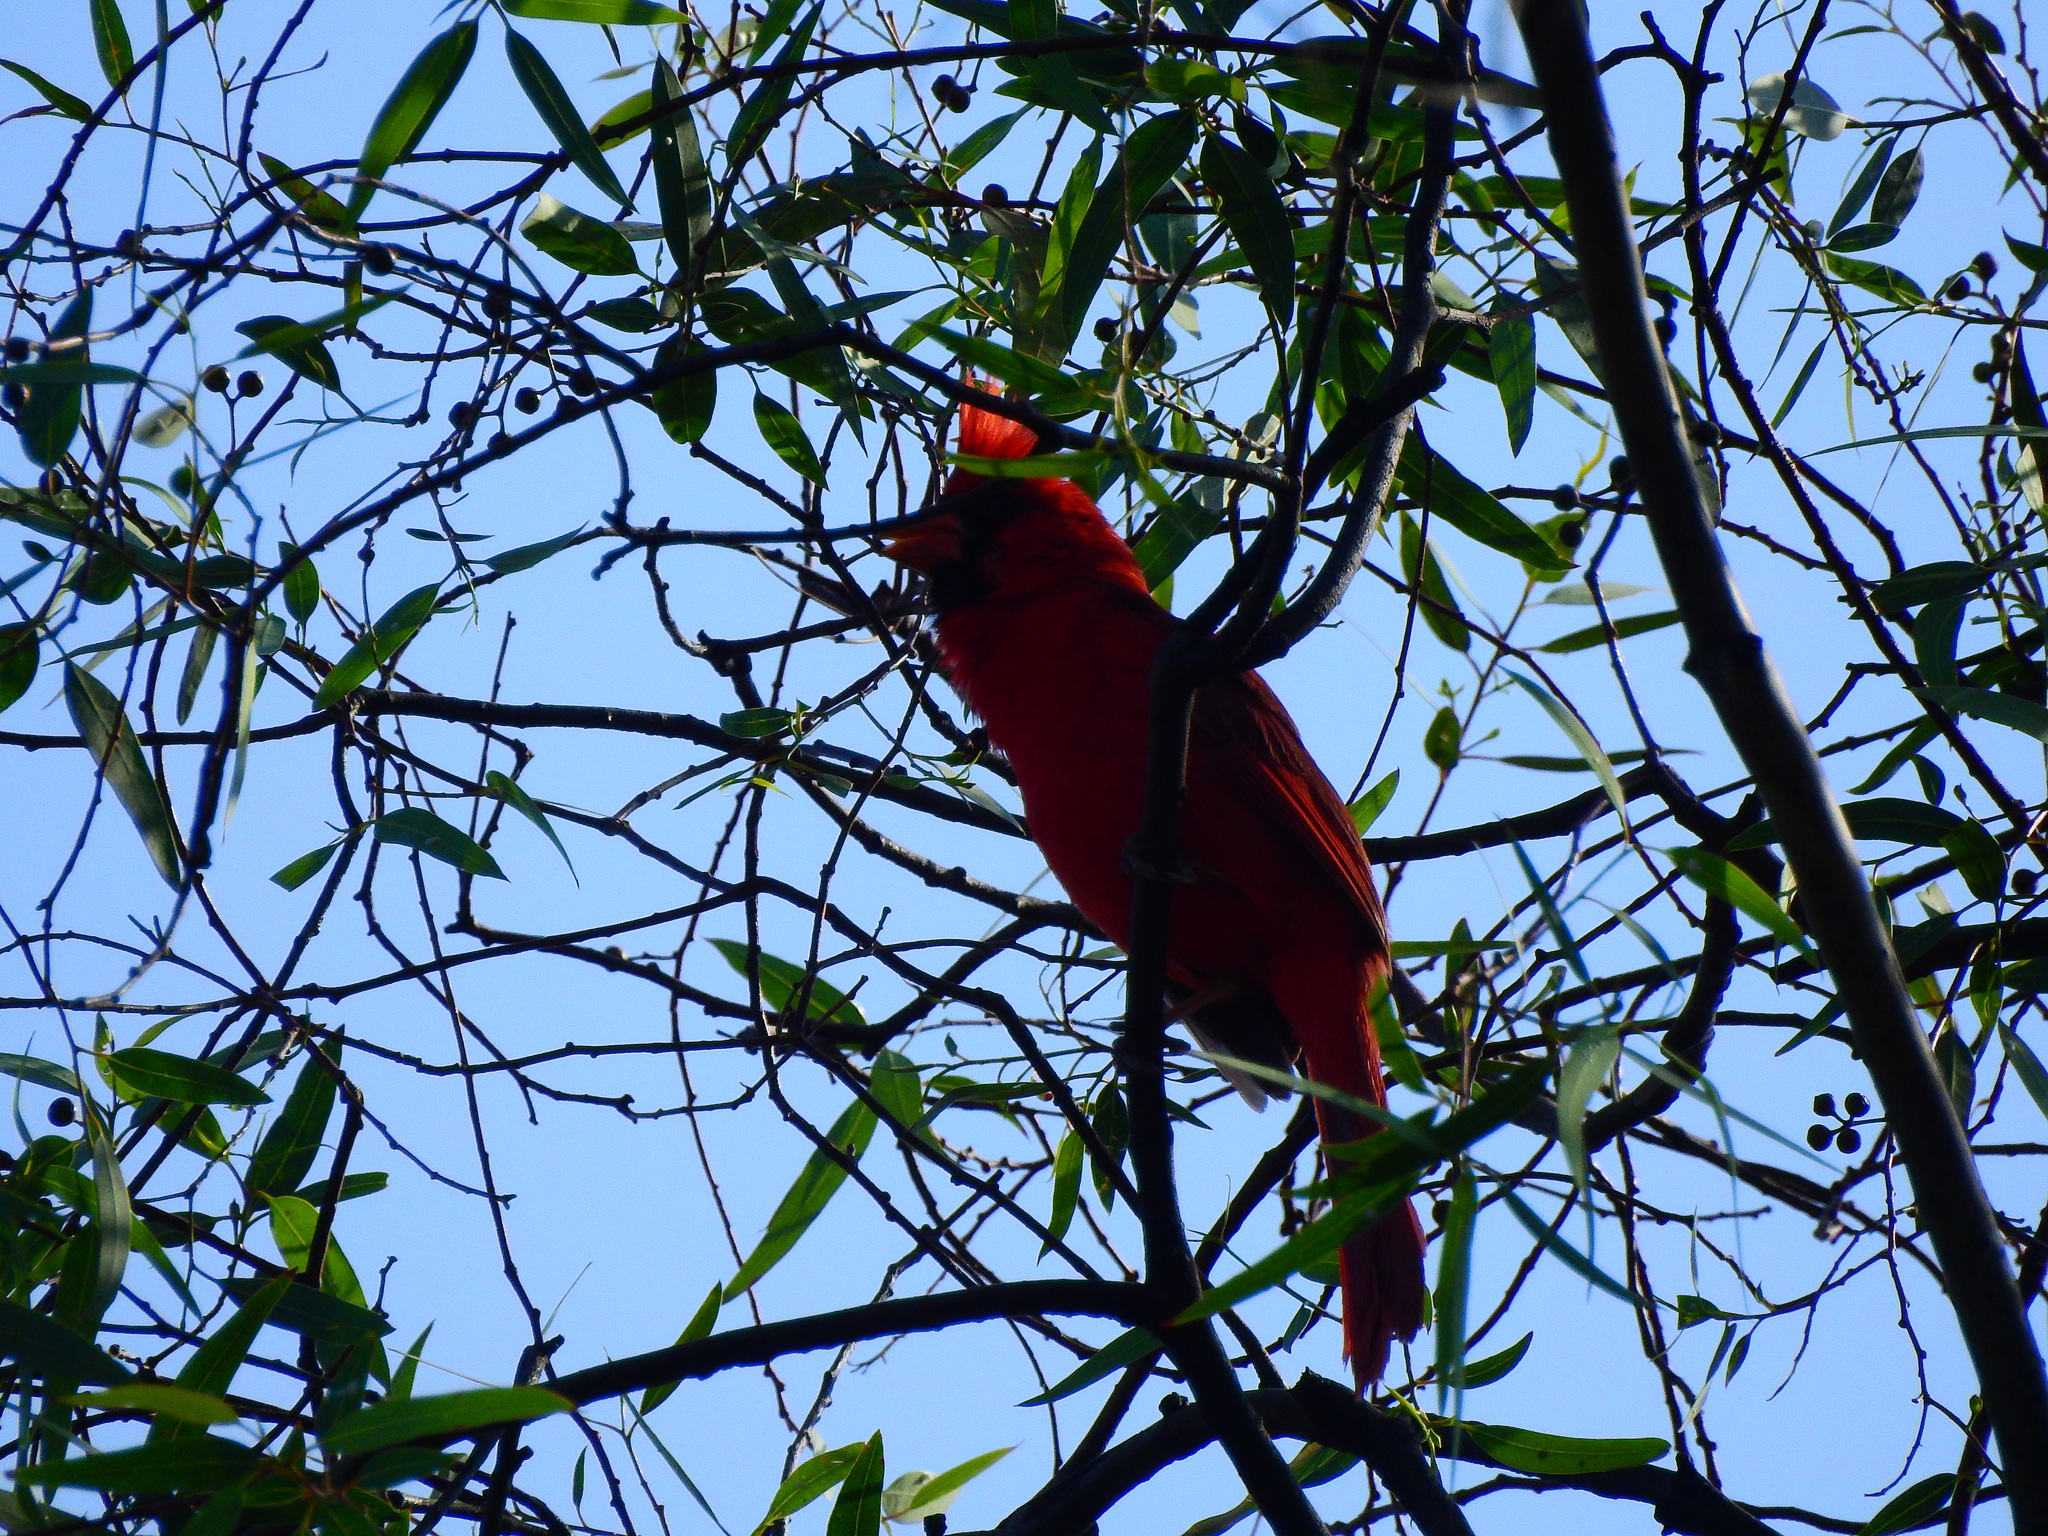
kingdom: Animalia
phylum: Chordata
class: Aves
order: Passeriformes
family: Cardinalidae
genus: Cardinalis
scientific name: Cardinalis cardinalis
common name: Northern cardinal
